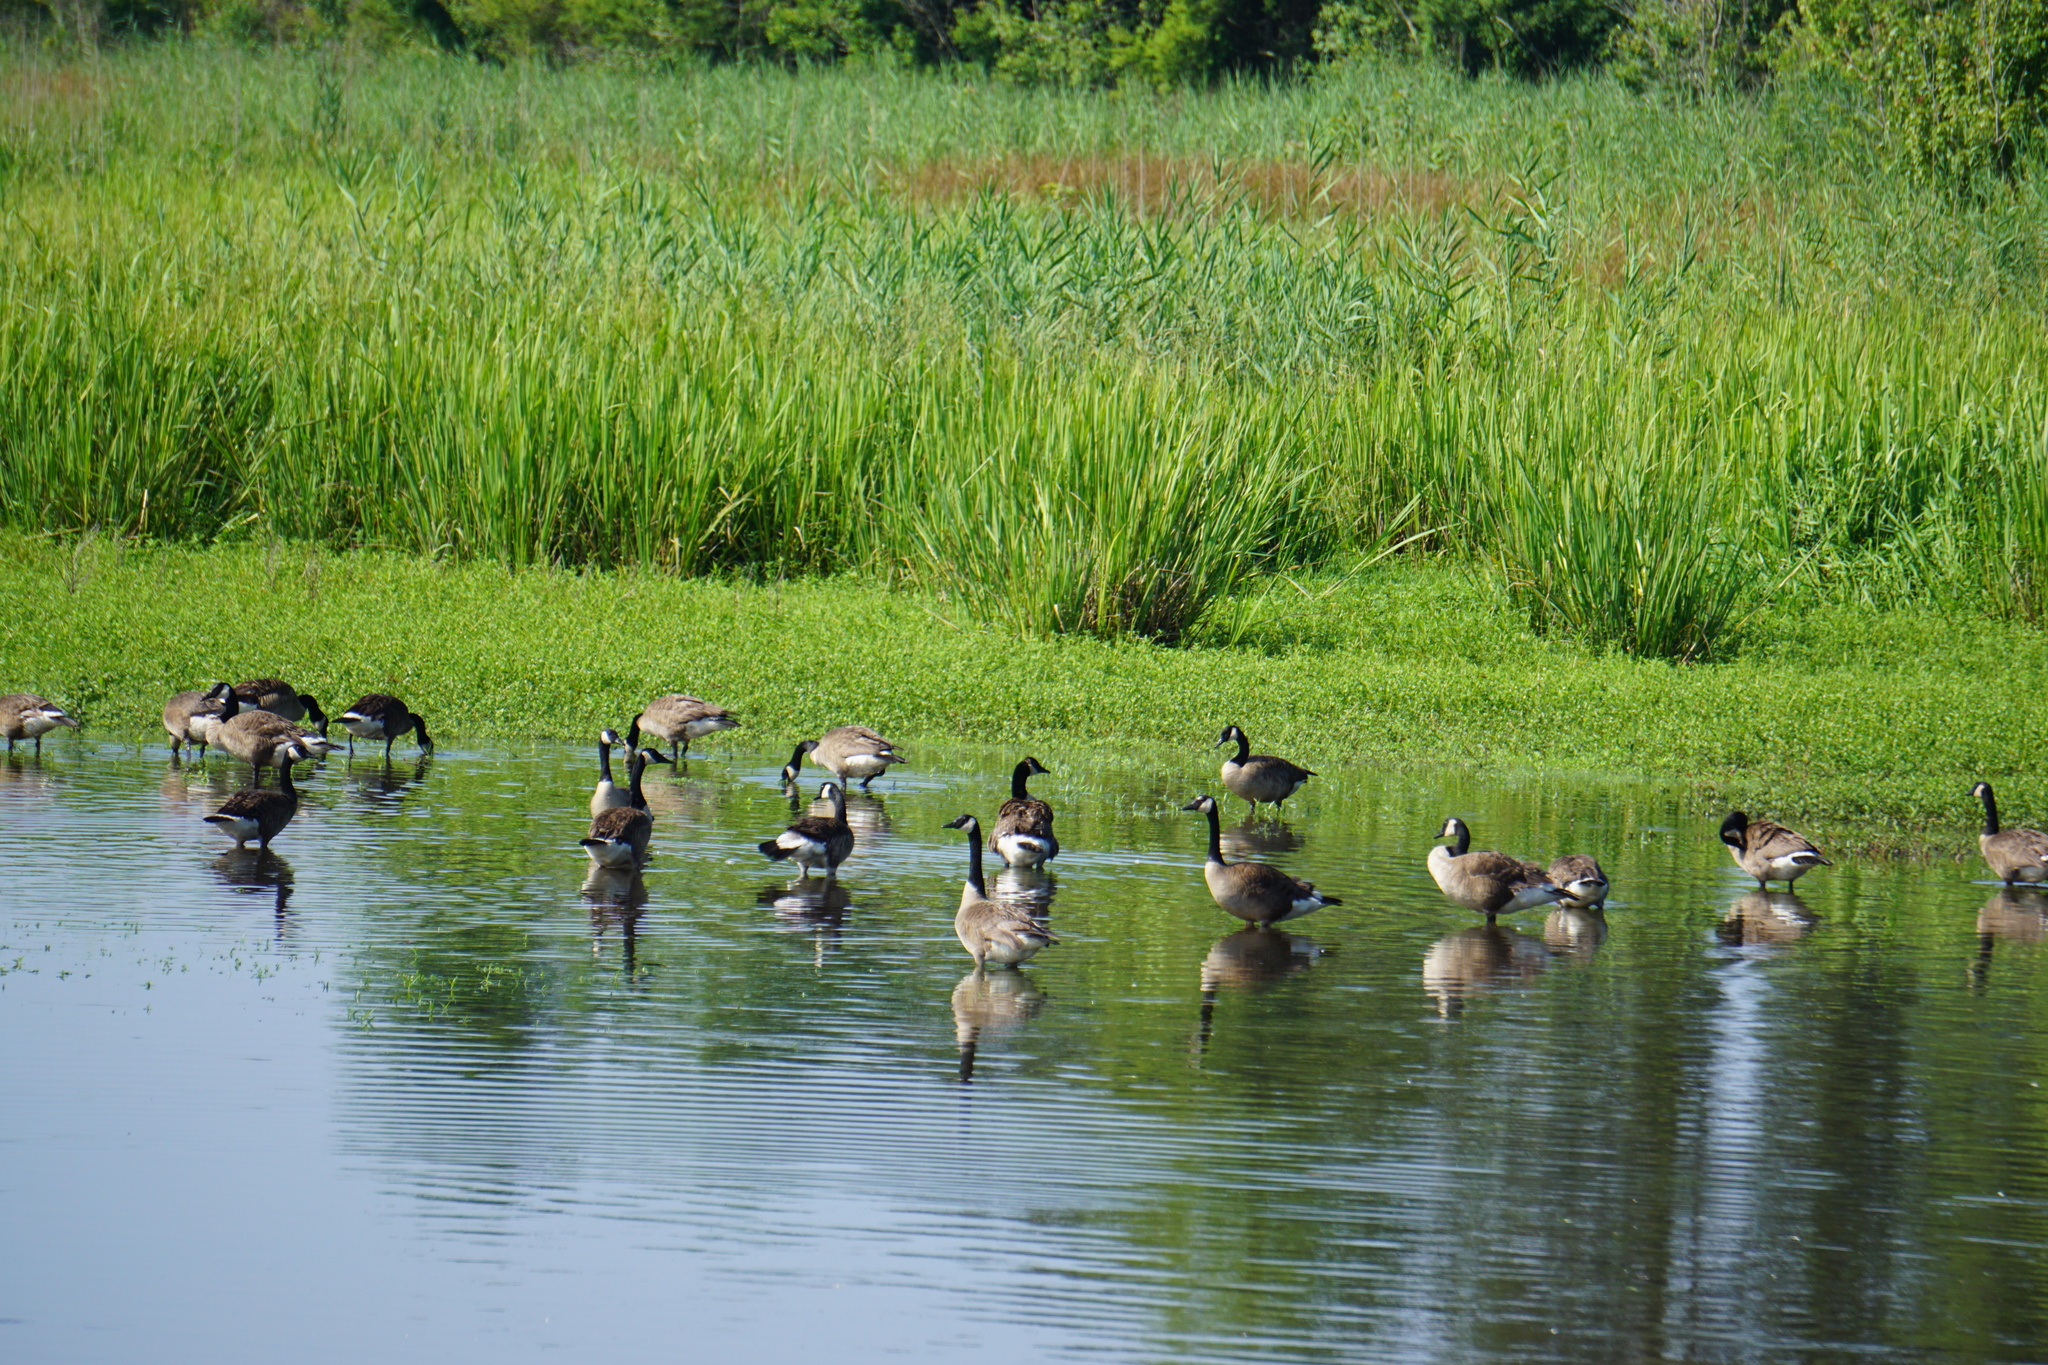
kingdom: Animalia
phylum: Chordata
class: Aves
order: Anseriformes
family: Anatidae
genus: Branta
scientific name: Branta canadensis
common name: Canada goose
